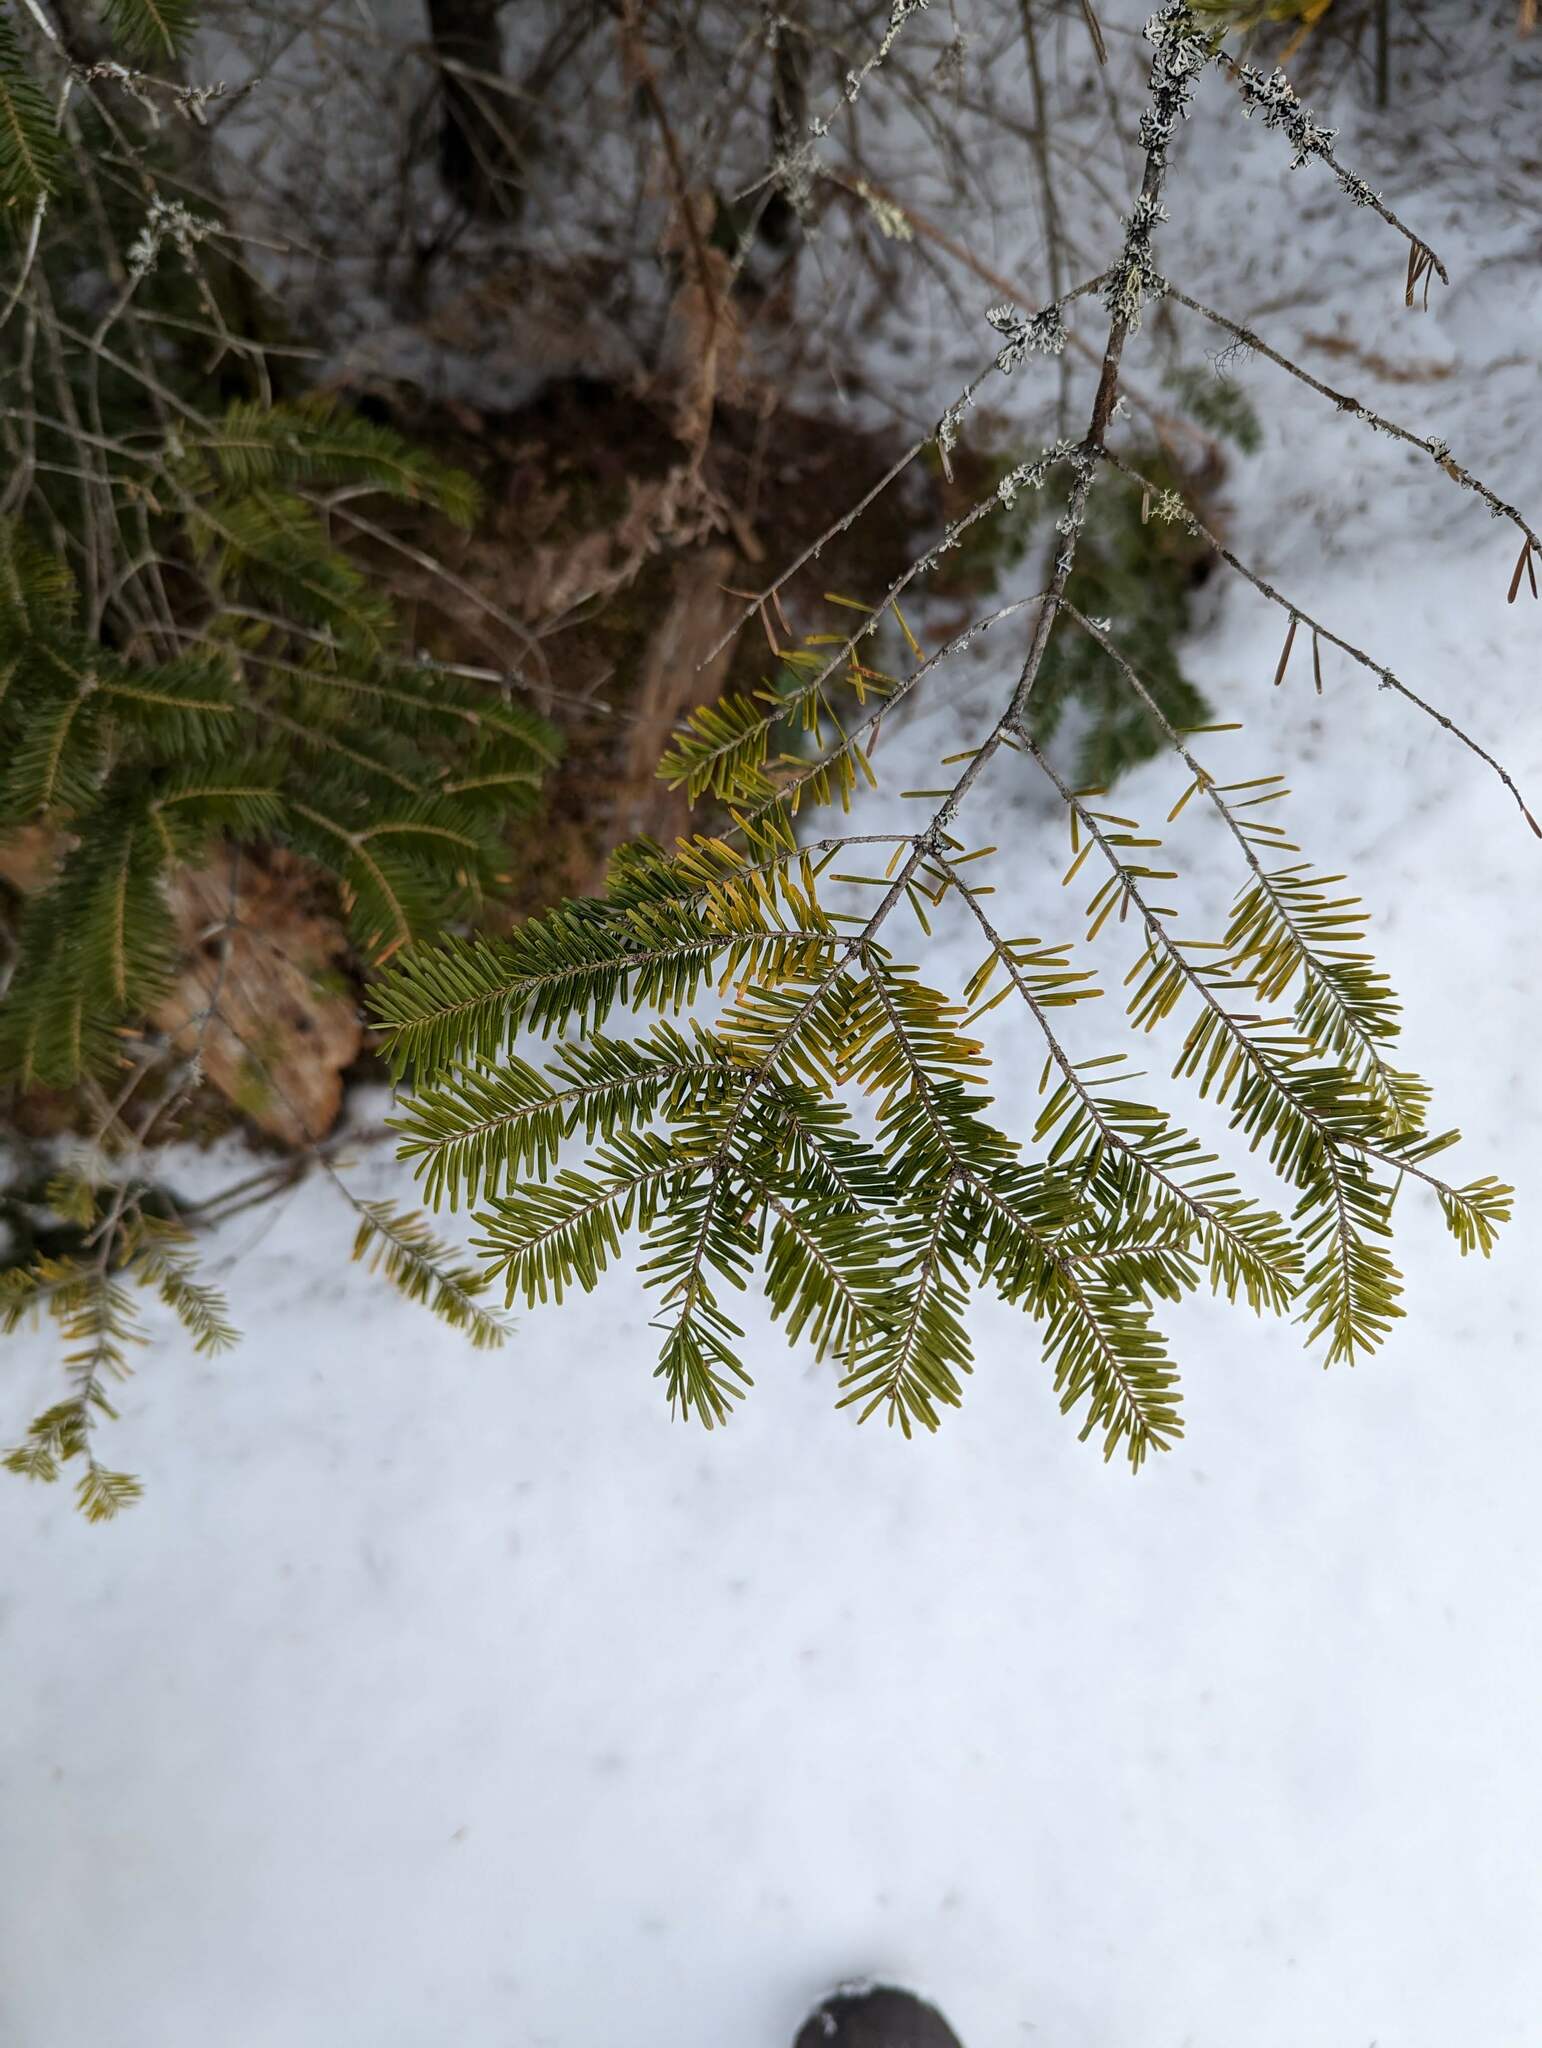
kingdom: Plantae
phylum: Tracheophyta
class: Pinopsida
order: Pinales
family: Pinaceae
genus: Abies
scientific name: Abies balsamea
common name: Balsam fir
